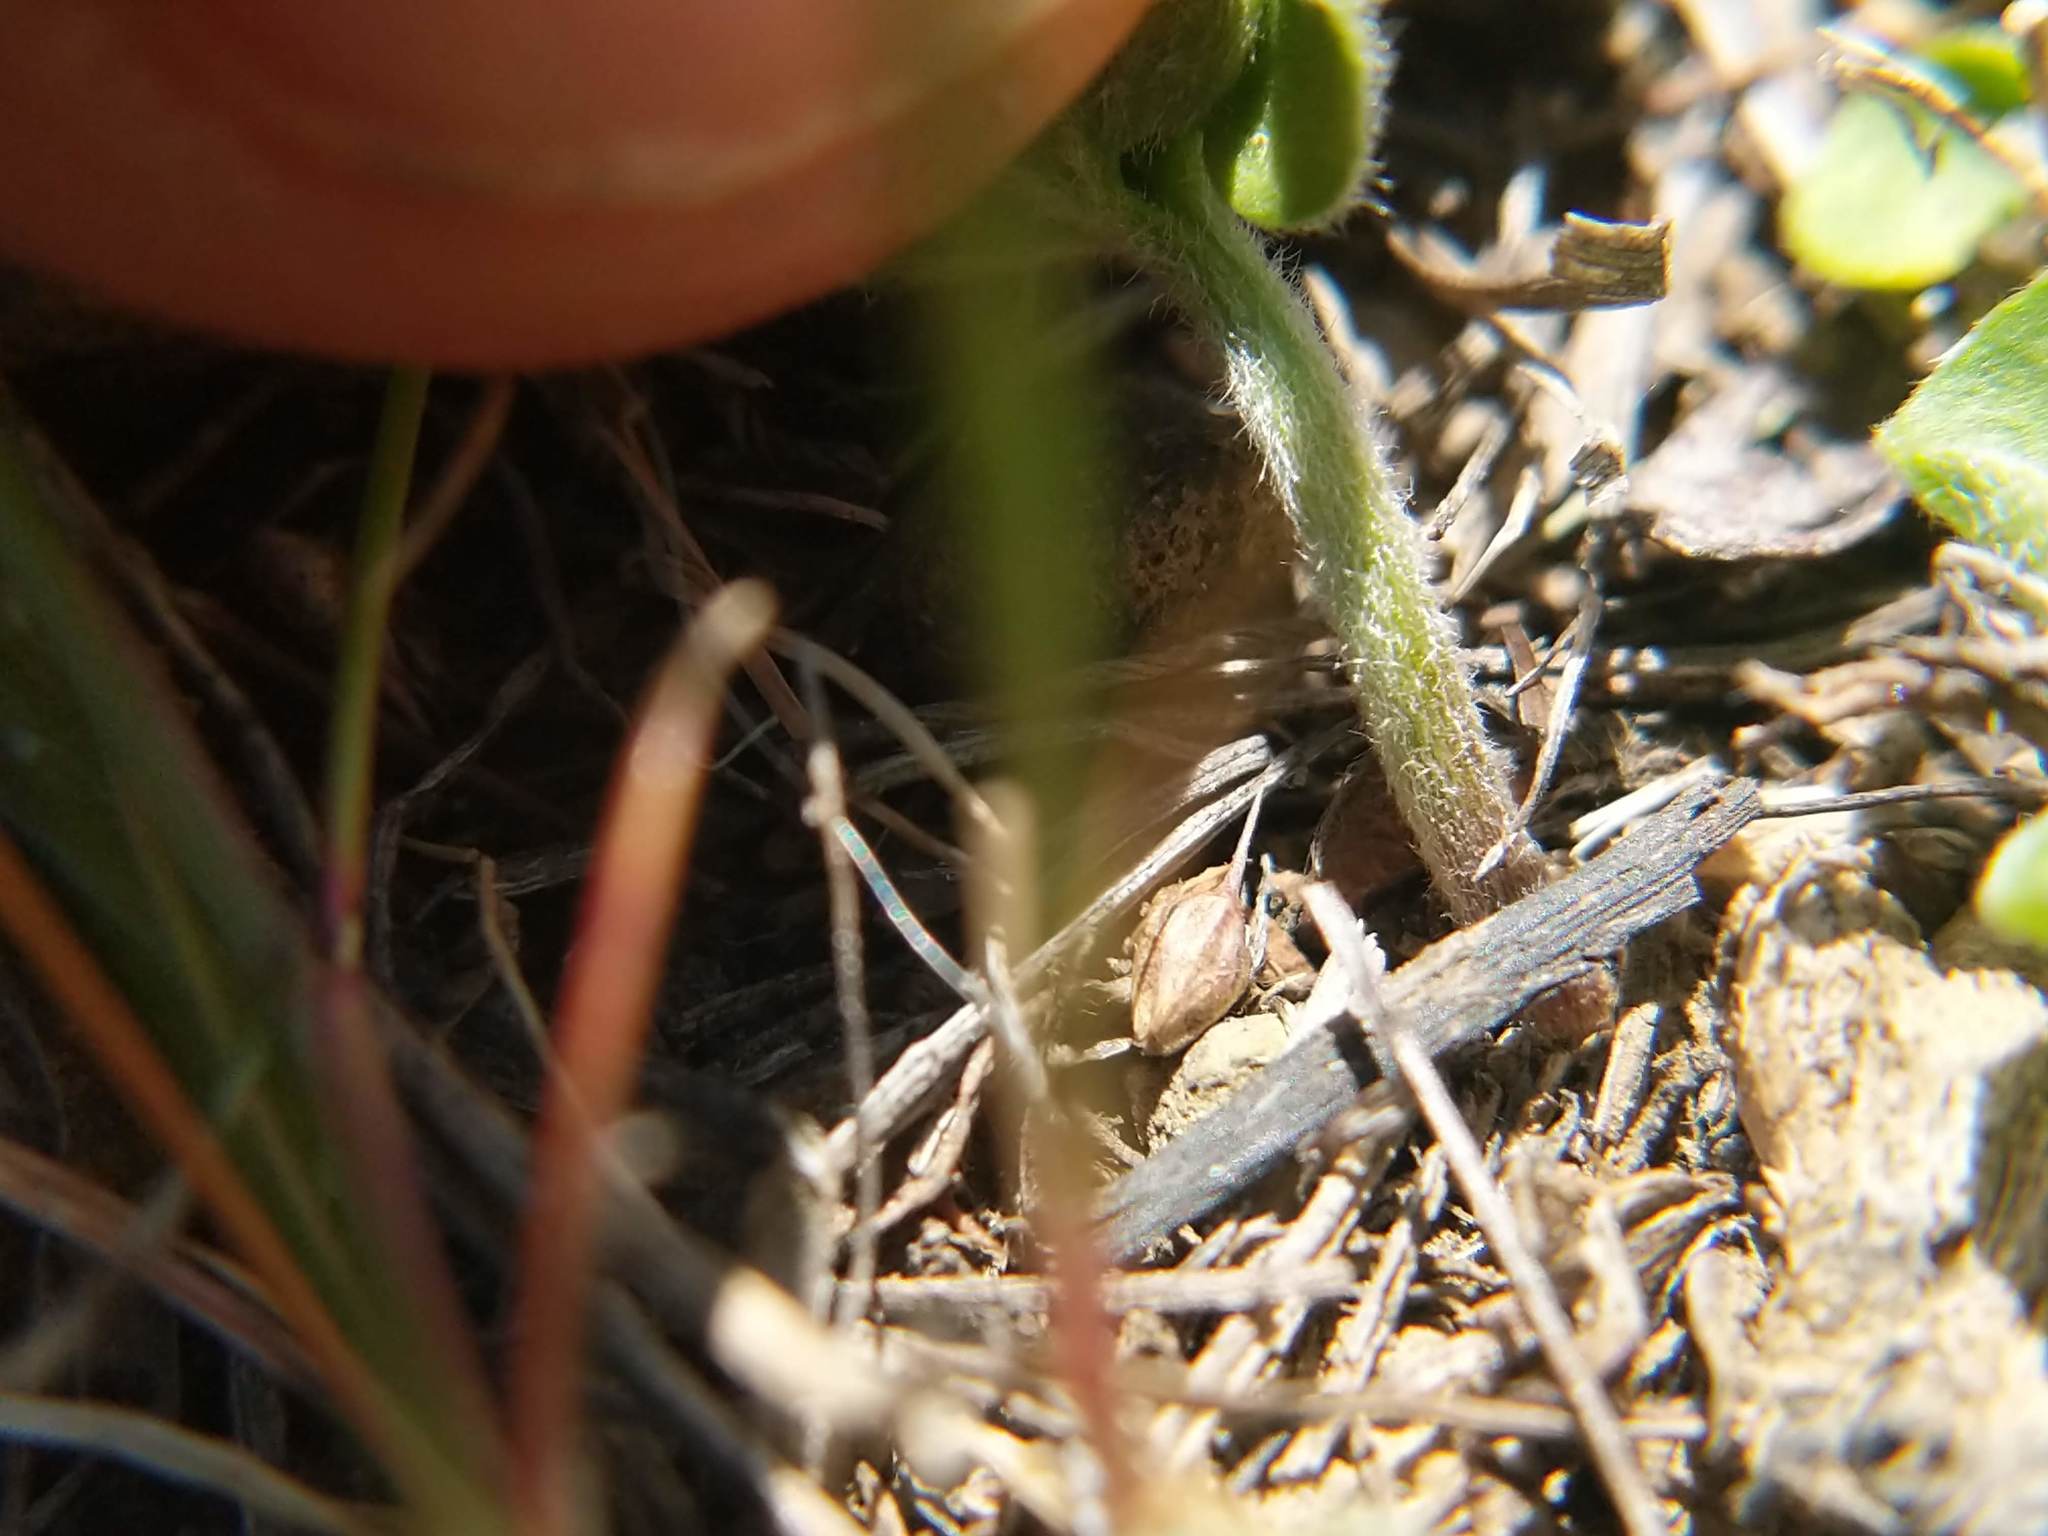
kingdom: Plantae
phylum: Tracheophyta
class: Magnoliopsida
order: Solanales
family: Convolvulaceae
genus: Dichondra
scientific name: Dichondra donelliana
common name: California ponysfoot
